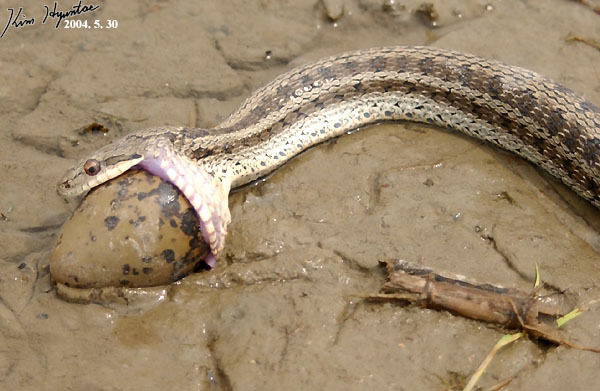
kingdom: Animalia
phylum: Chordata
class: Squamata
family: Colubridae
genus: Elaphe
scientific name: Elaphe dione
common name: Dione ratsnake
